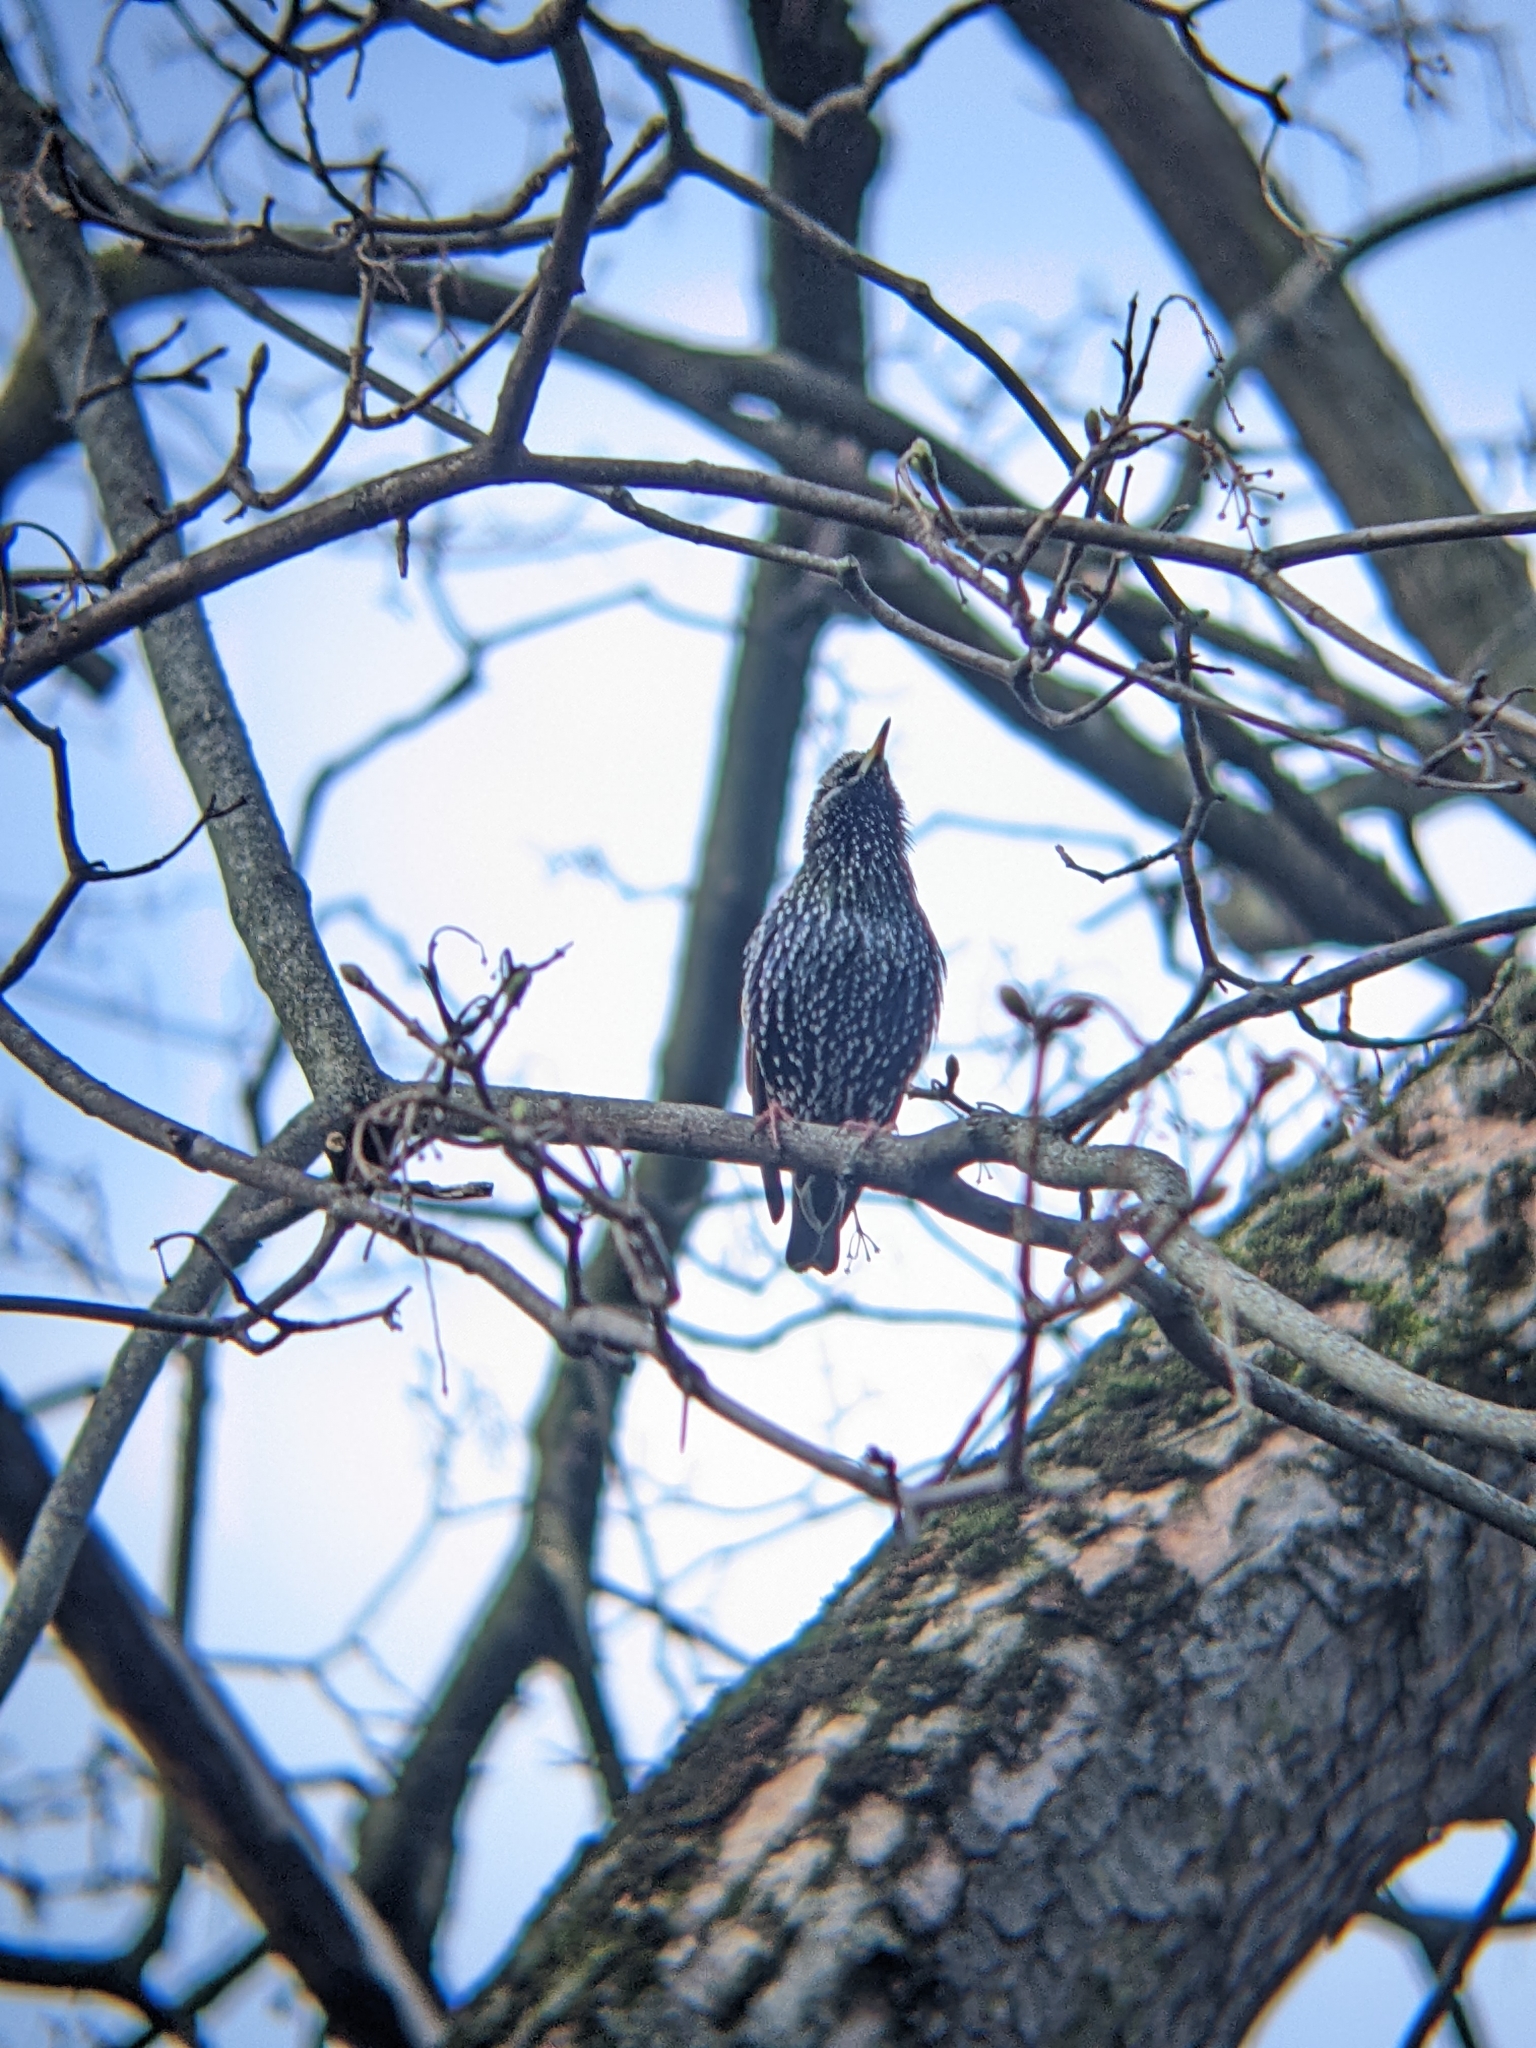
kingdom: Animalia
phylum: Chordata
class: Aves
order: Passeriformes
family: Sturnidae
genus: Sturnus
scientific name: Sturnus vulgaris
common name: Common starling
